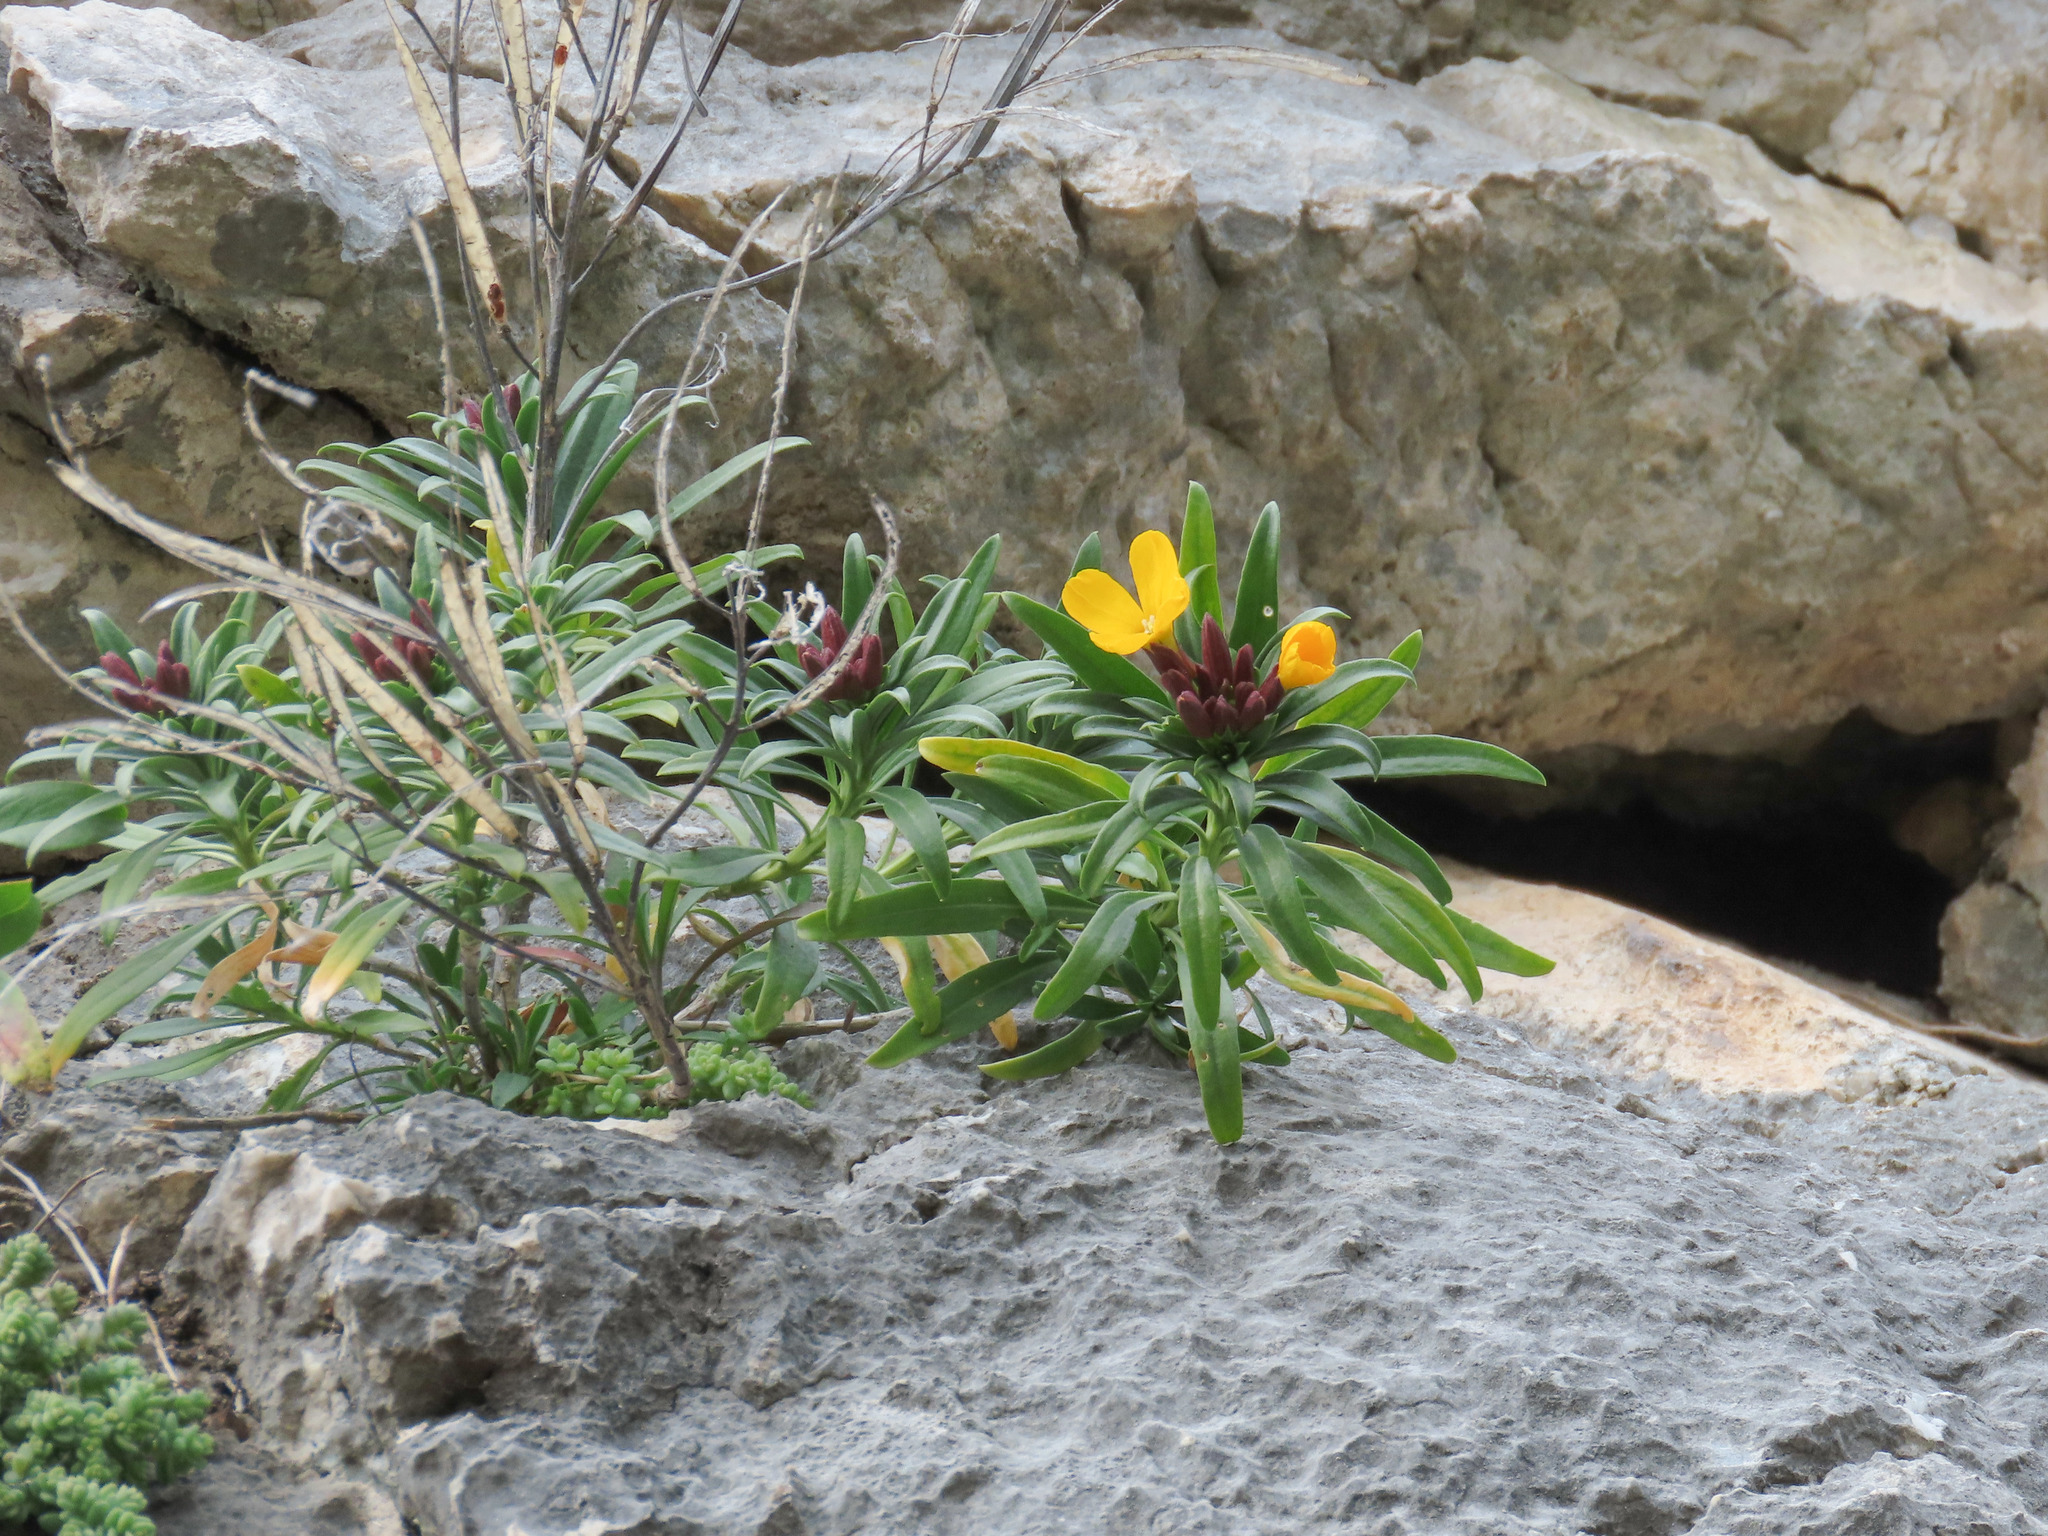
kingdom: Plantae
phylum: Tracheophyta
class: Magnoliopsida
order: Brassicales
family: Brassicaceae
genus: Erysimum
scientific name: Erysimum cheiri
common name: Wallflower
